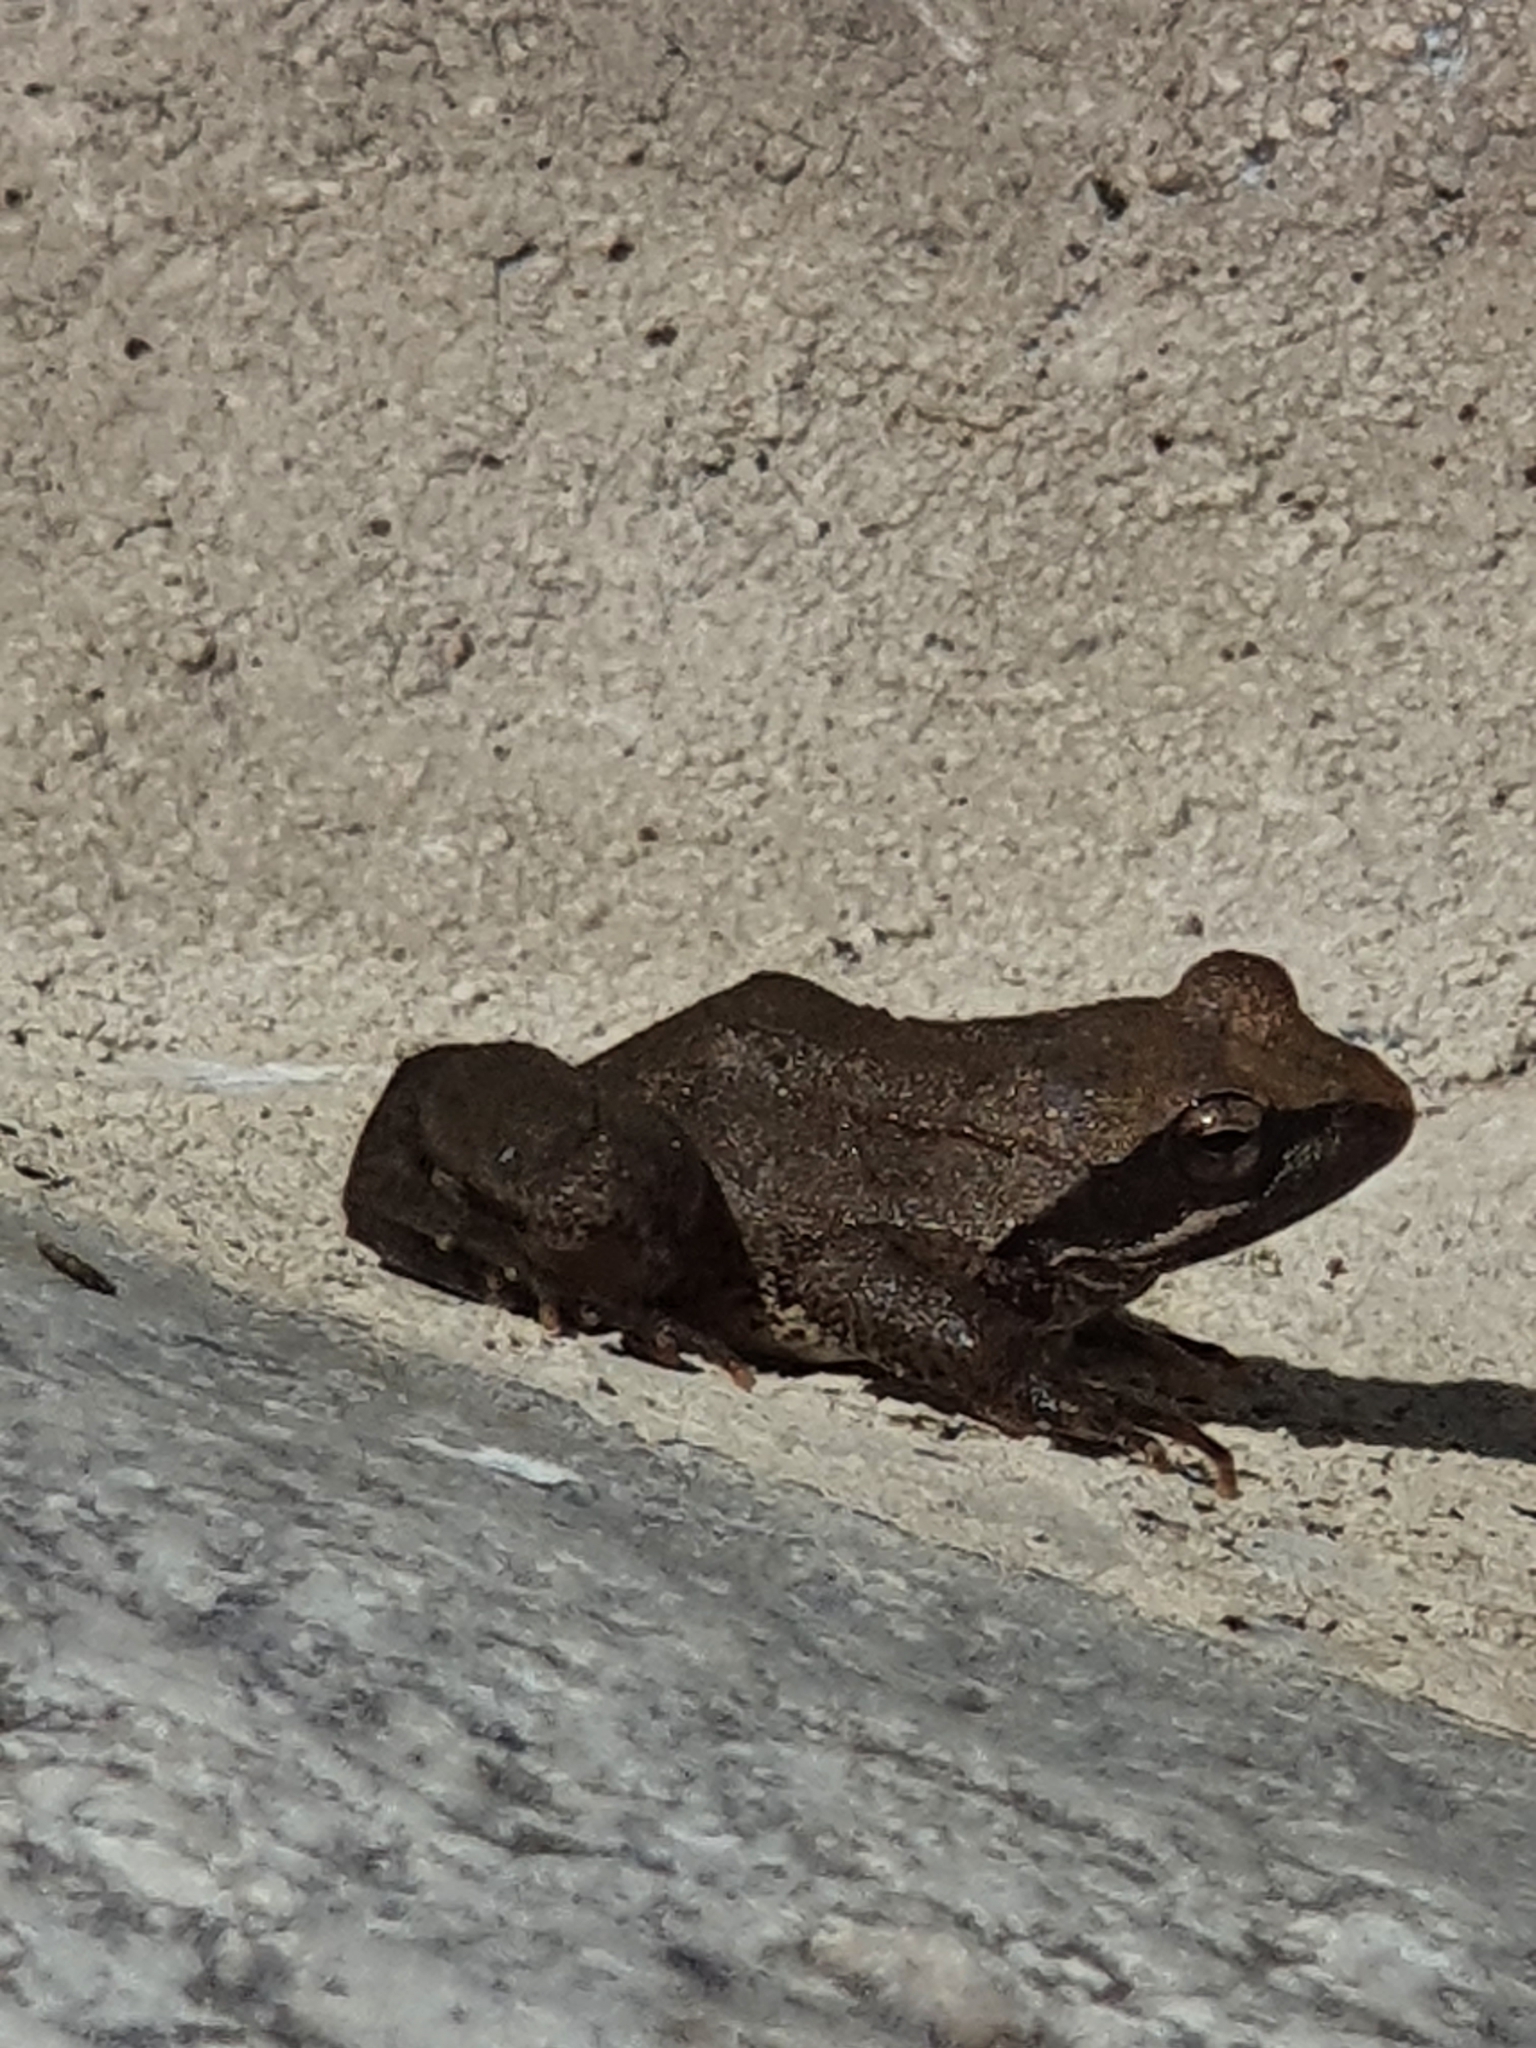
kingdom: Animalia
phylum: Chordata
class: Amphibia
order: Anura
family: Ranidae
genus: Rana
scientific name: Rana italica
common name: Italian stream frog
